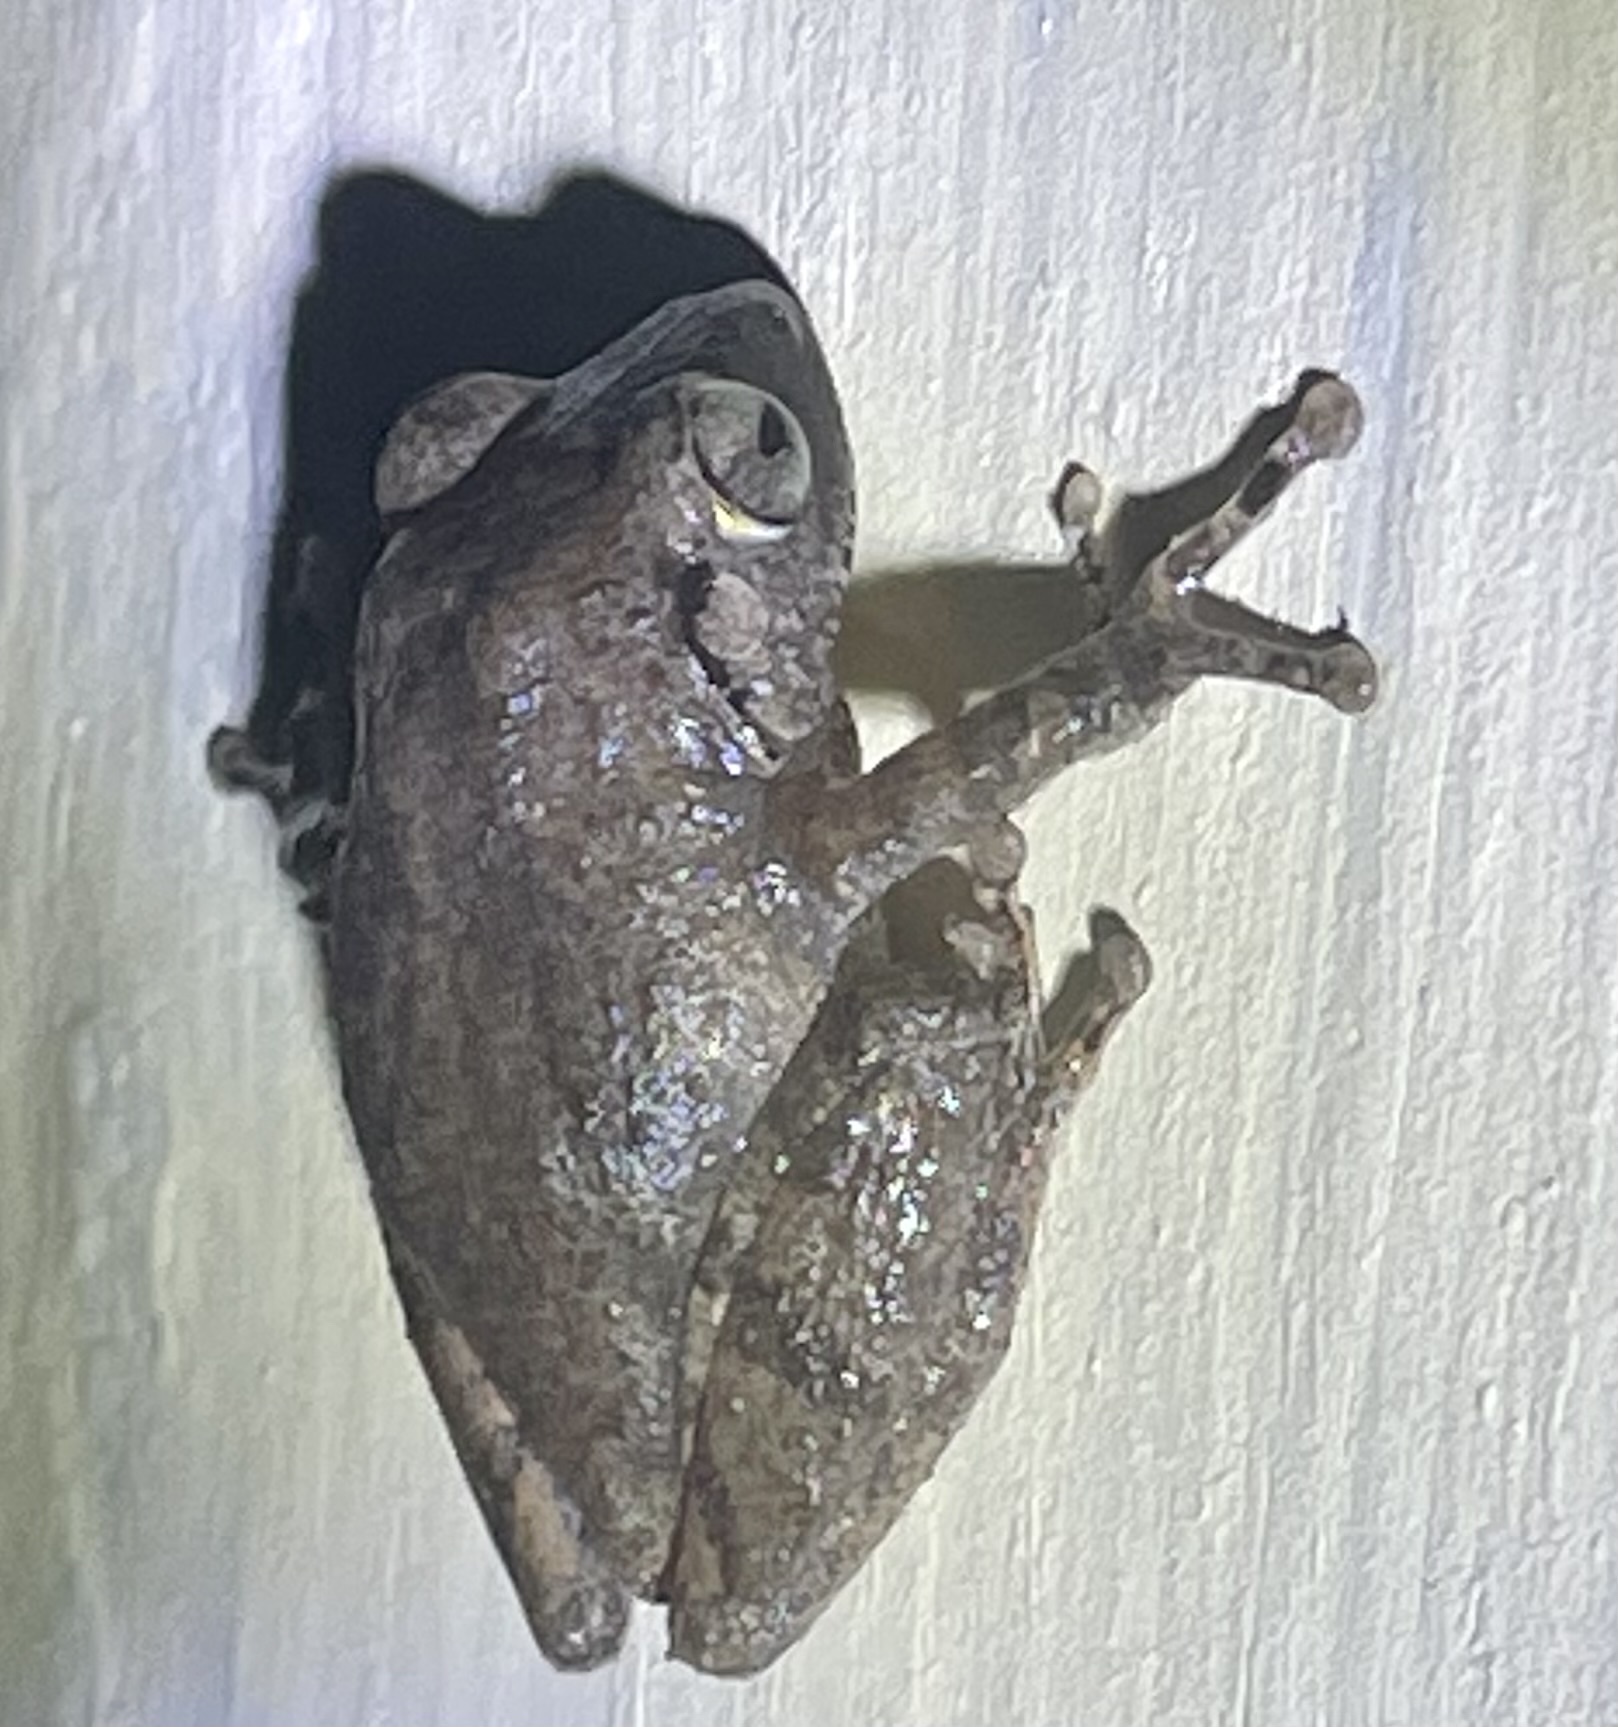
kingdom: Animalia
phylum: Chordata
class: Amphibia
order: Anura
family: Rhacophoridae
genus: Raorchestes
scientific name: Raorchestes honnametti
